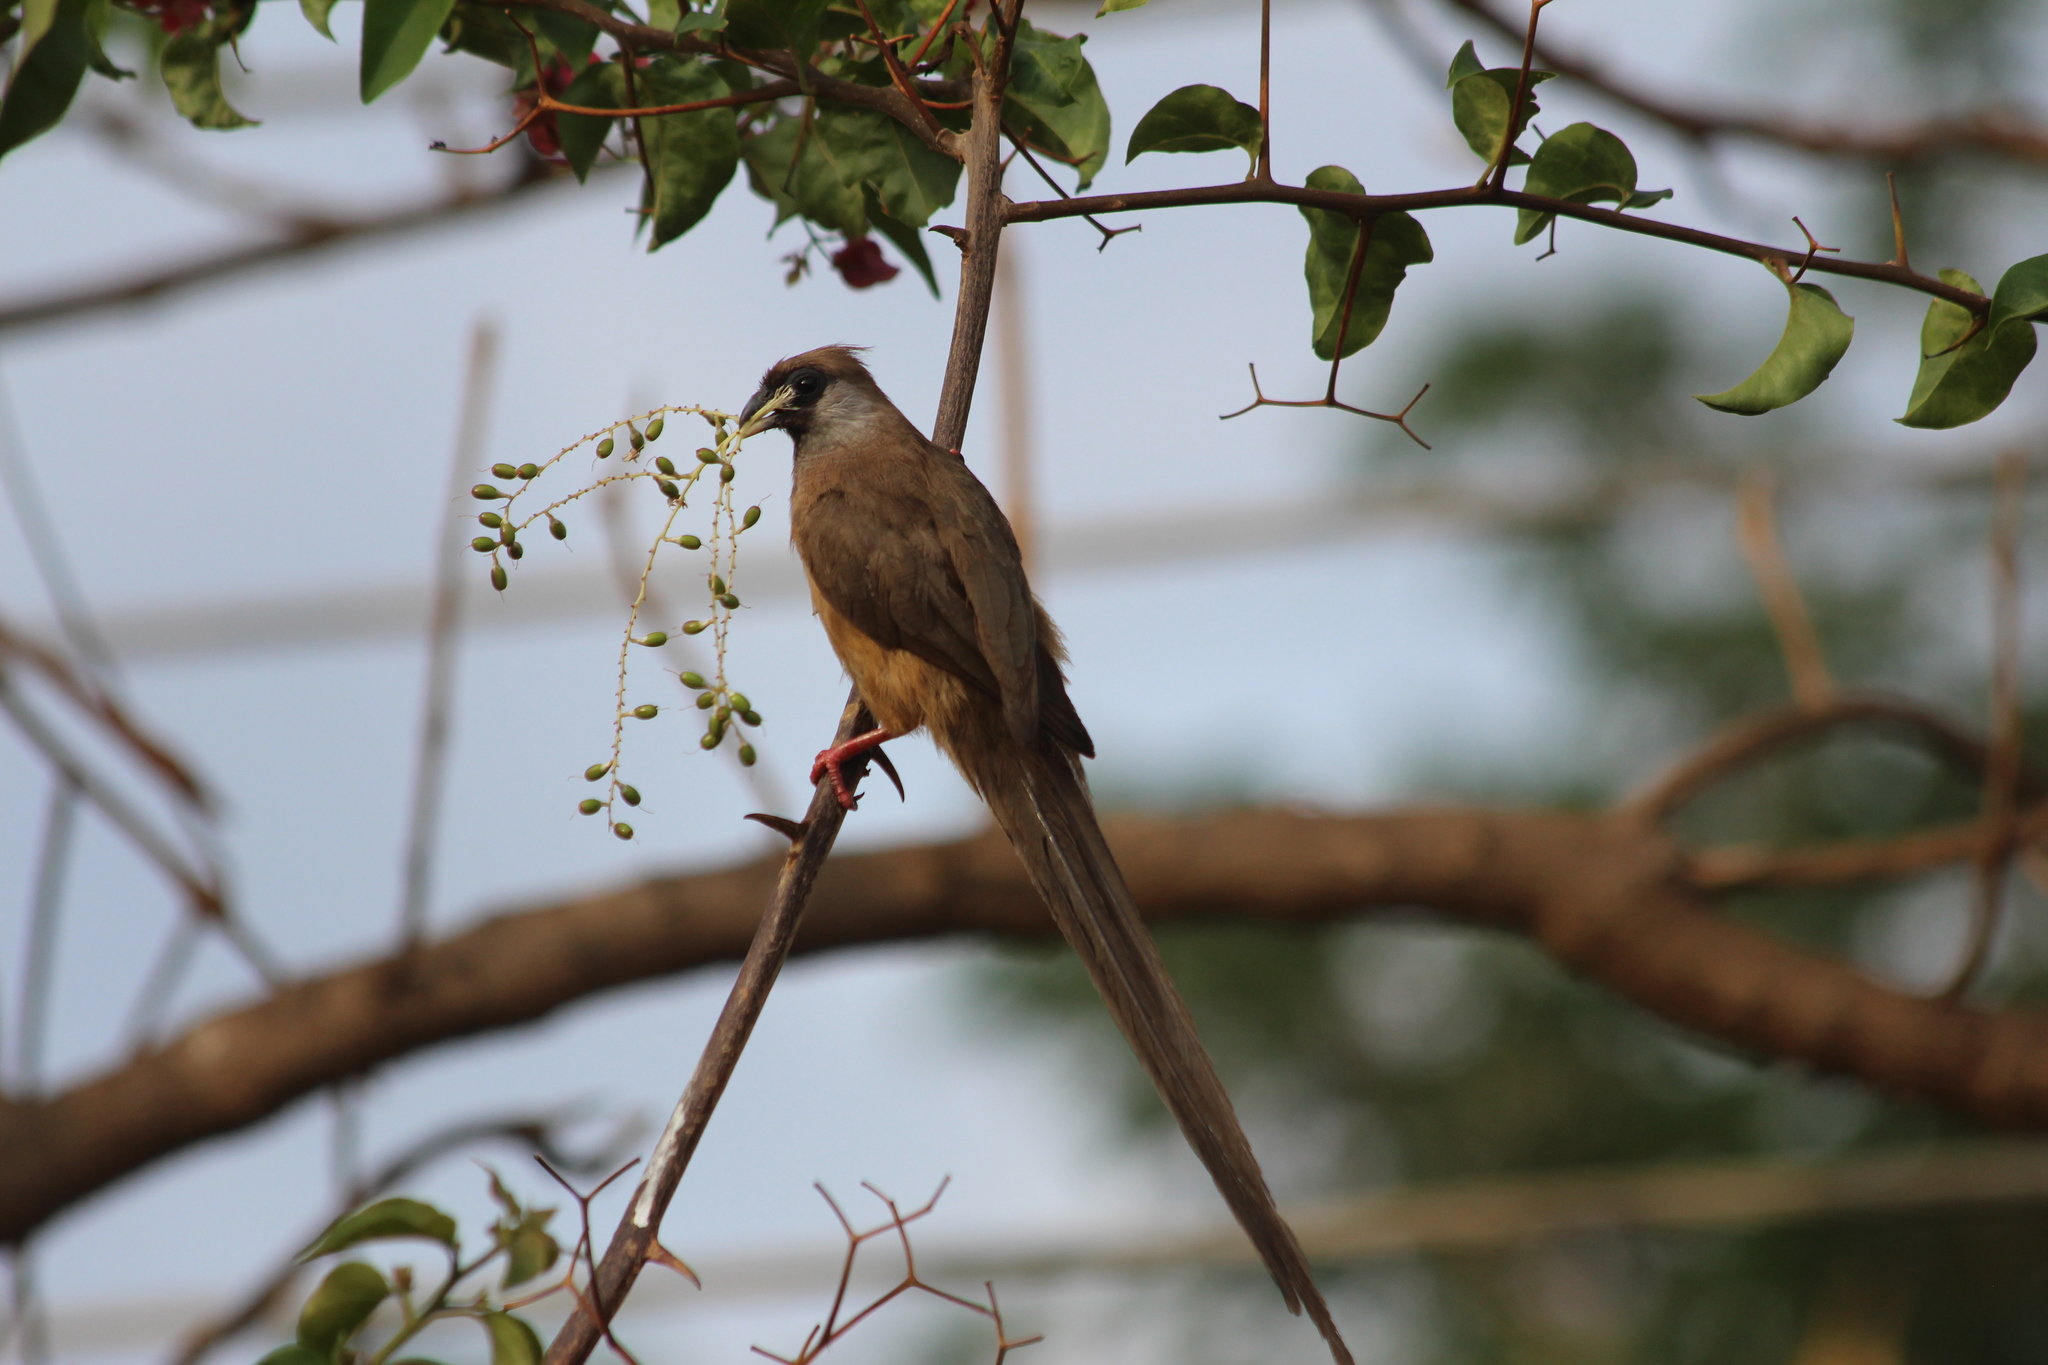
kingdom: Animalia
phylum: Chordata
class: Aves
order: Coliiformes
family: Coliidae
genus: Colius
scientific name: Colius striatus
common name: Speckled mousebird
